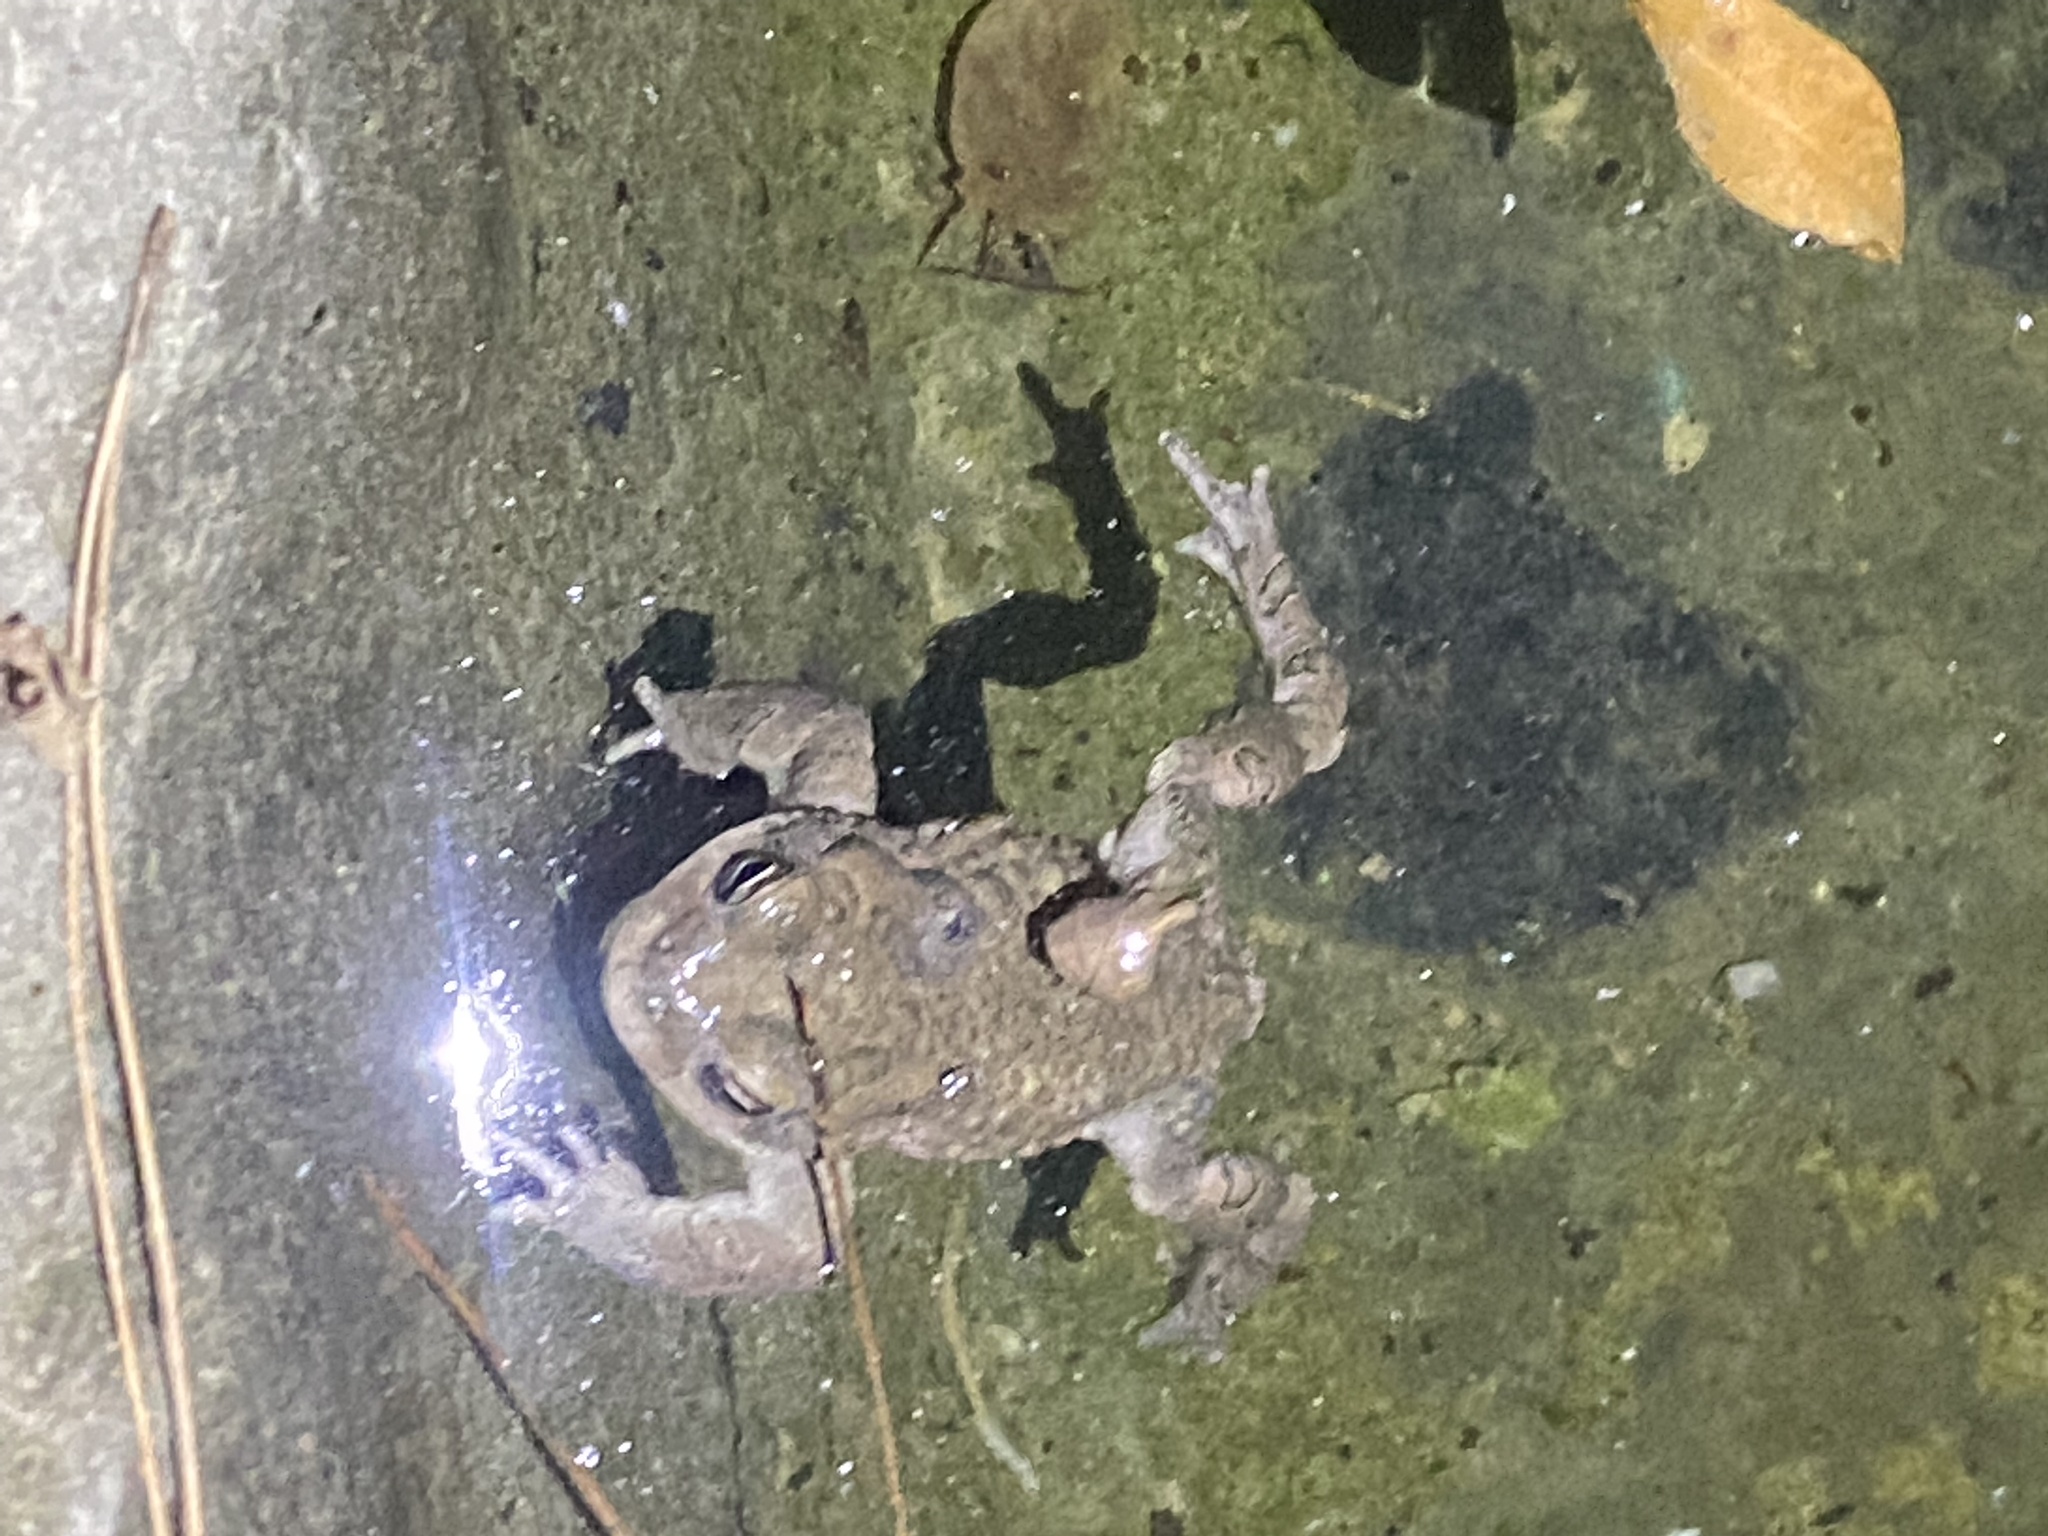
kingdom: Animalia
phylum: Chordata
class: Amphibia
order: Anura
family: Bufonidae
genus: Bufotes
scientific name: Bufotes viridis
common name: European green toad
